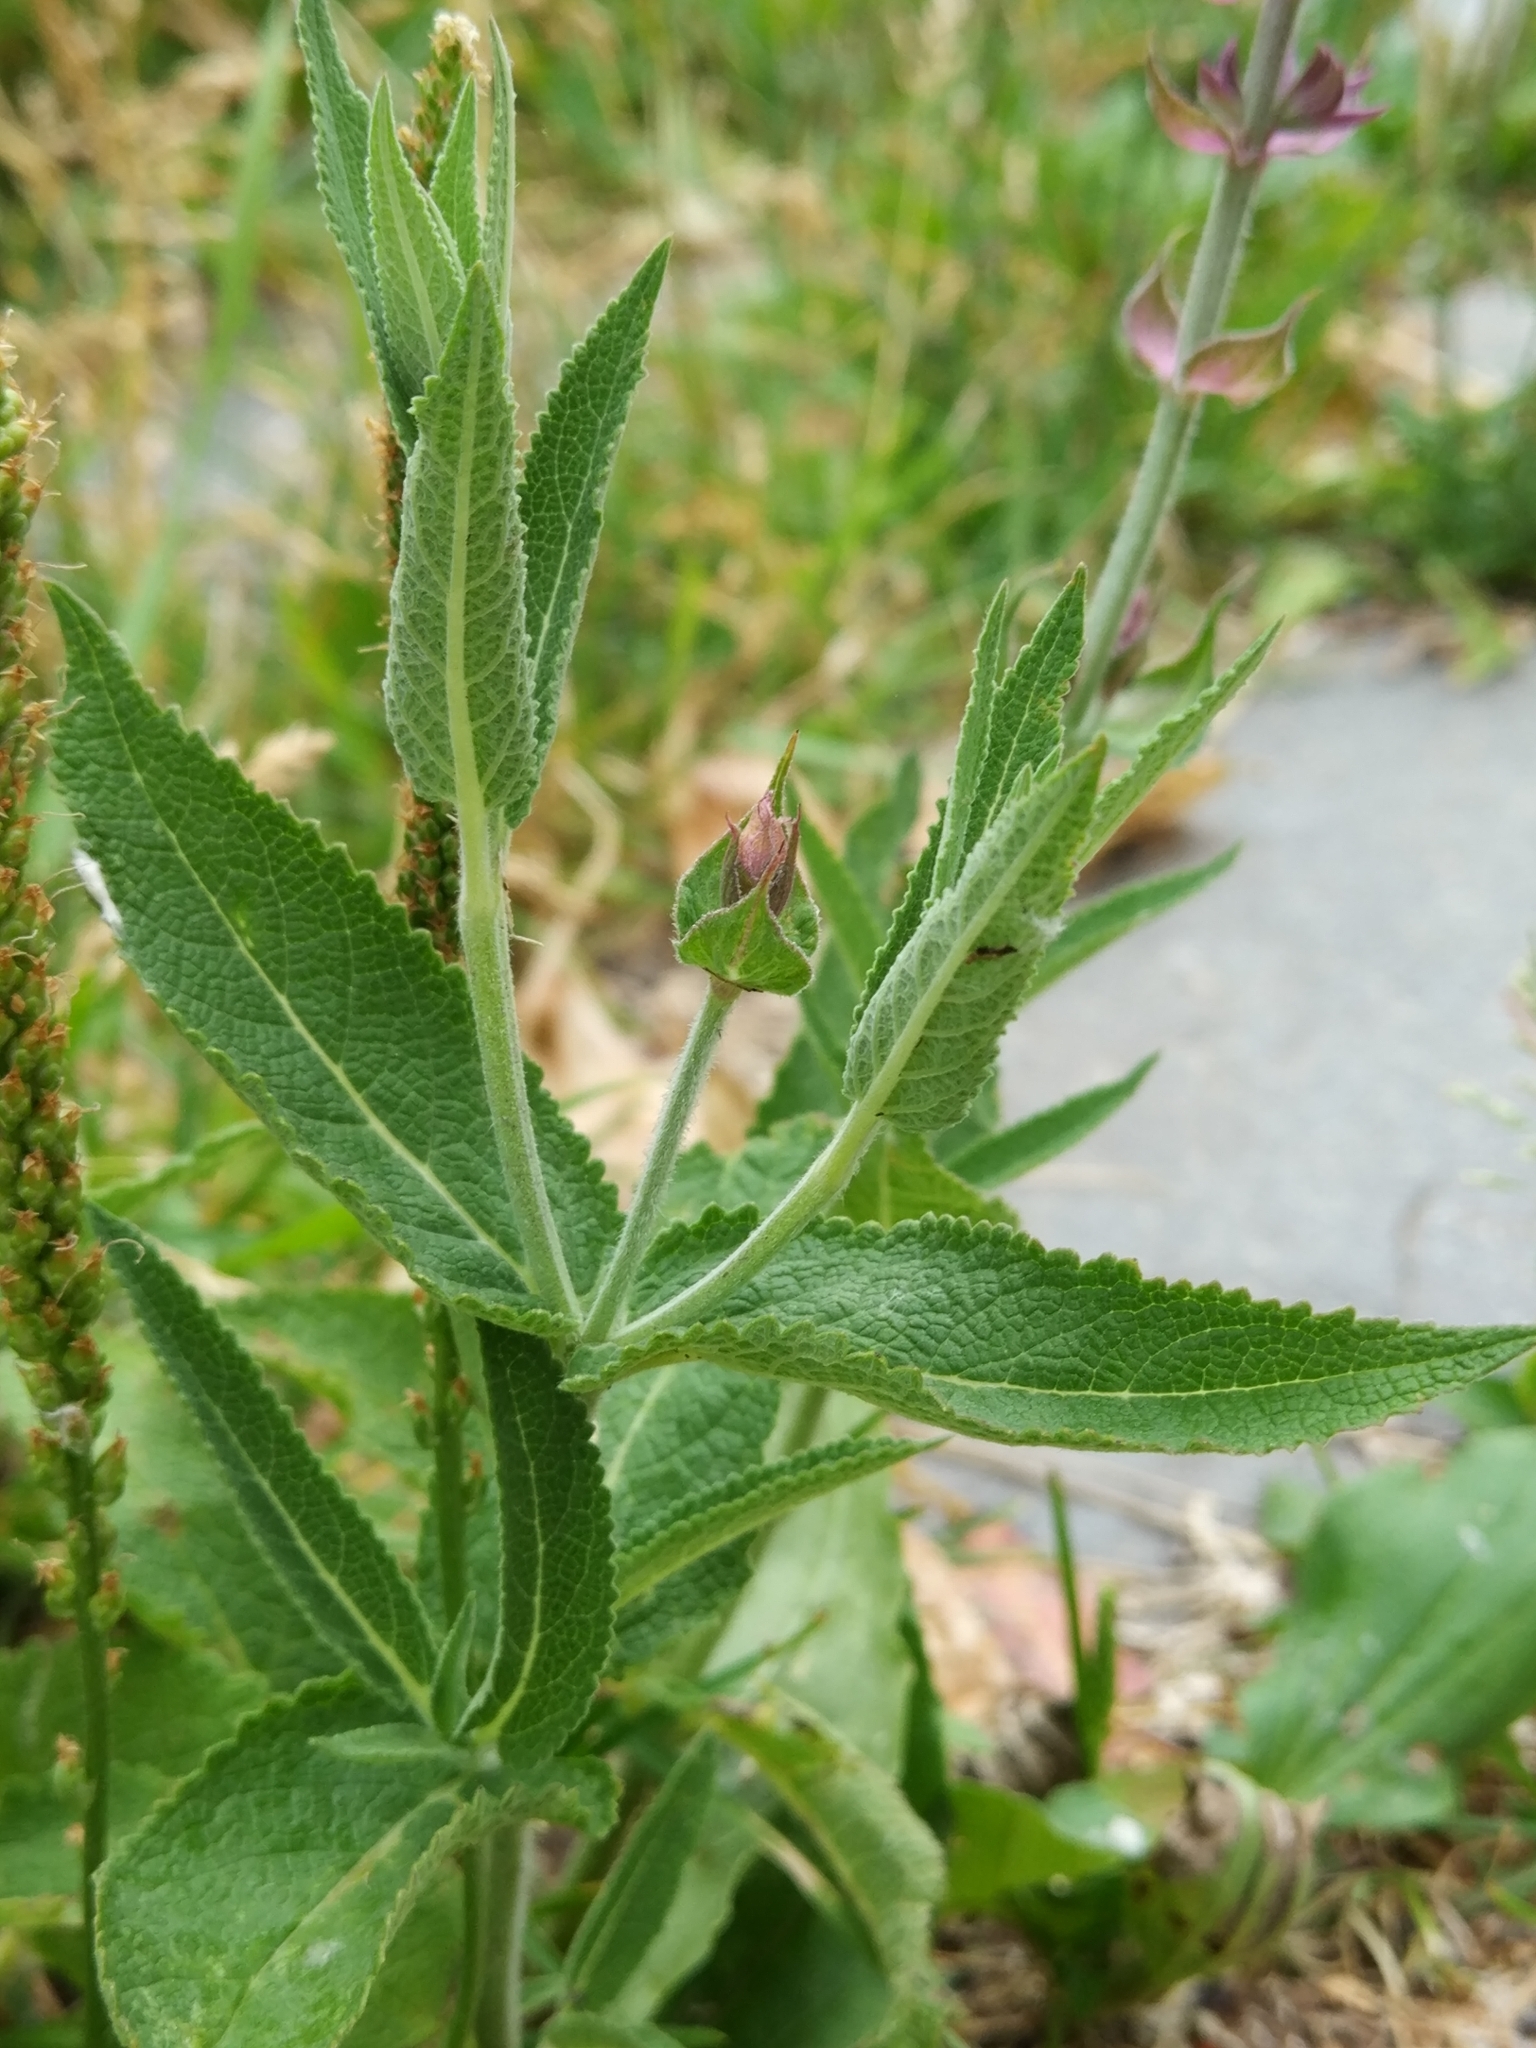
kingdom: Plantae
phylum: Tracheophyta
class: Magnoliopsida
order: Lamiales
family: Lamiaceae
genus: Salvia
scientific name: Salvia nemorosa
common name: Balkan clary
